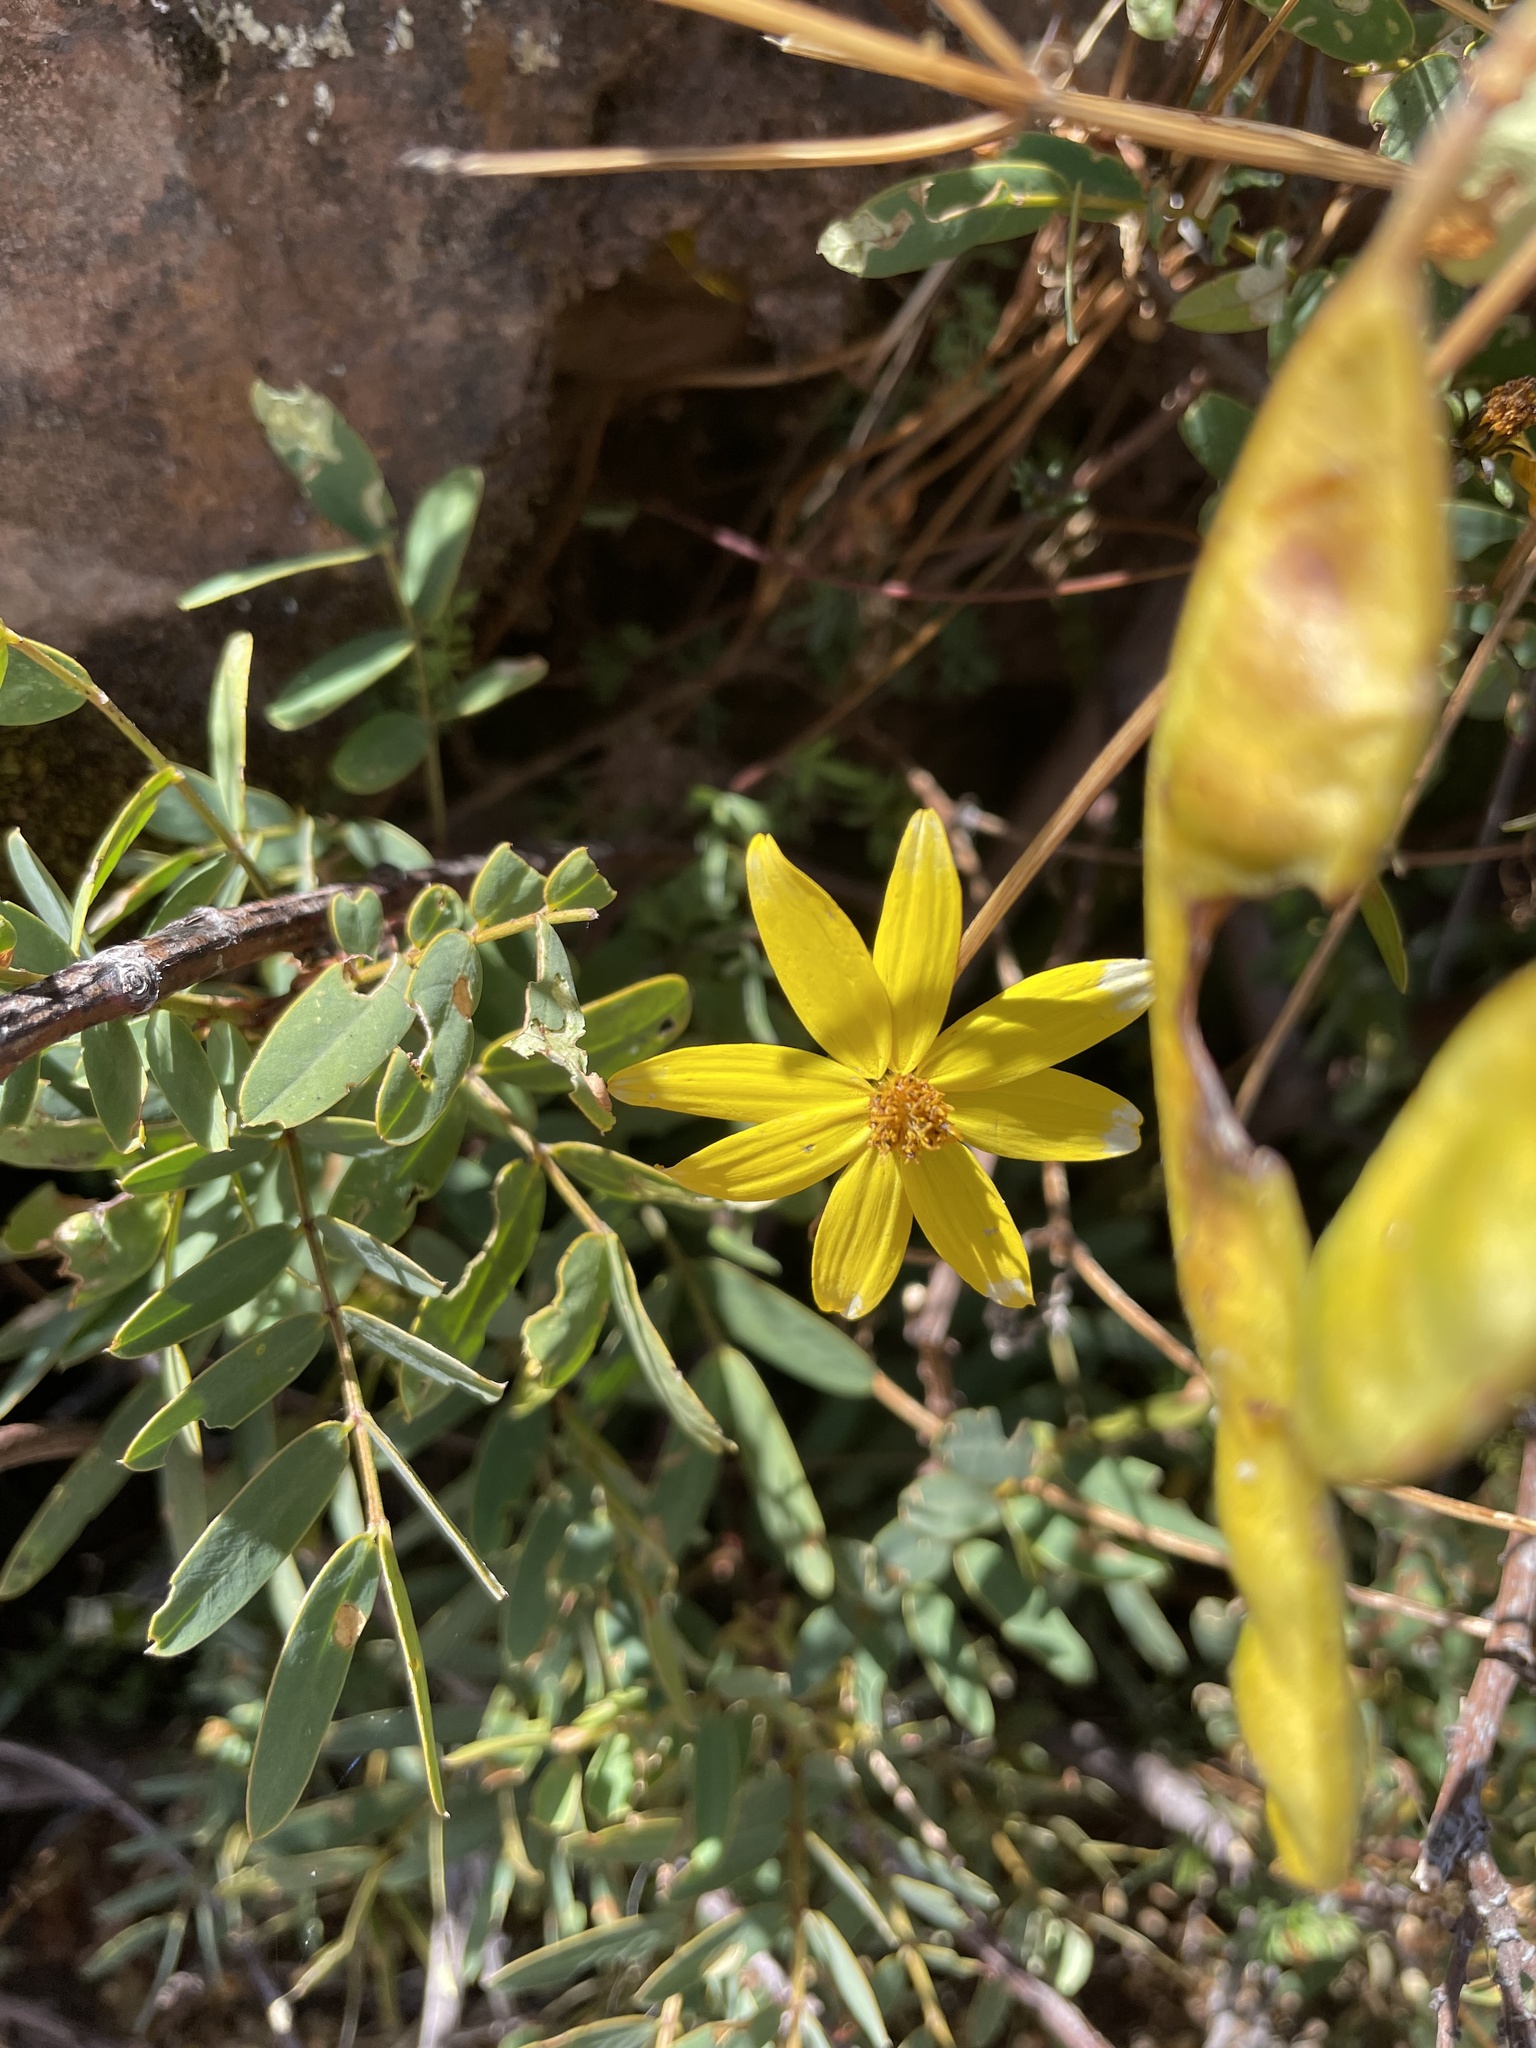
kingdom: Plantae
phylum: Tracheophyta
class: Magnoliopsida
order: Asterales
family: Asteraceae
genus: Bidens
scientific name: Bidens andicola
